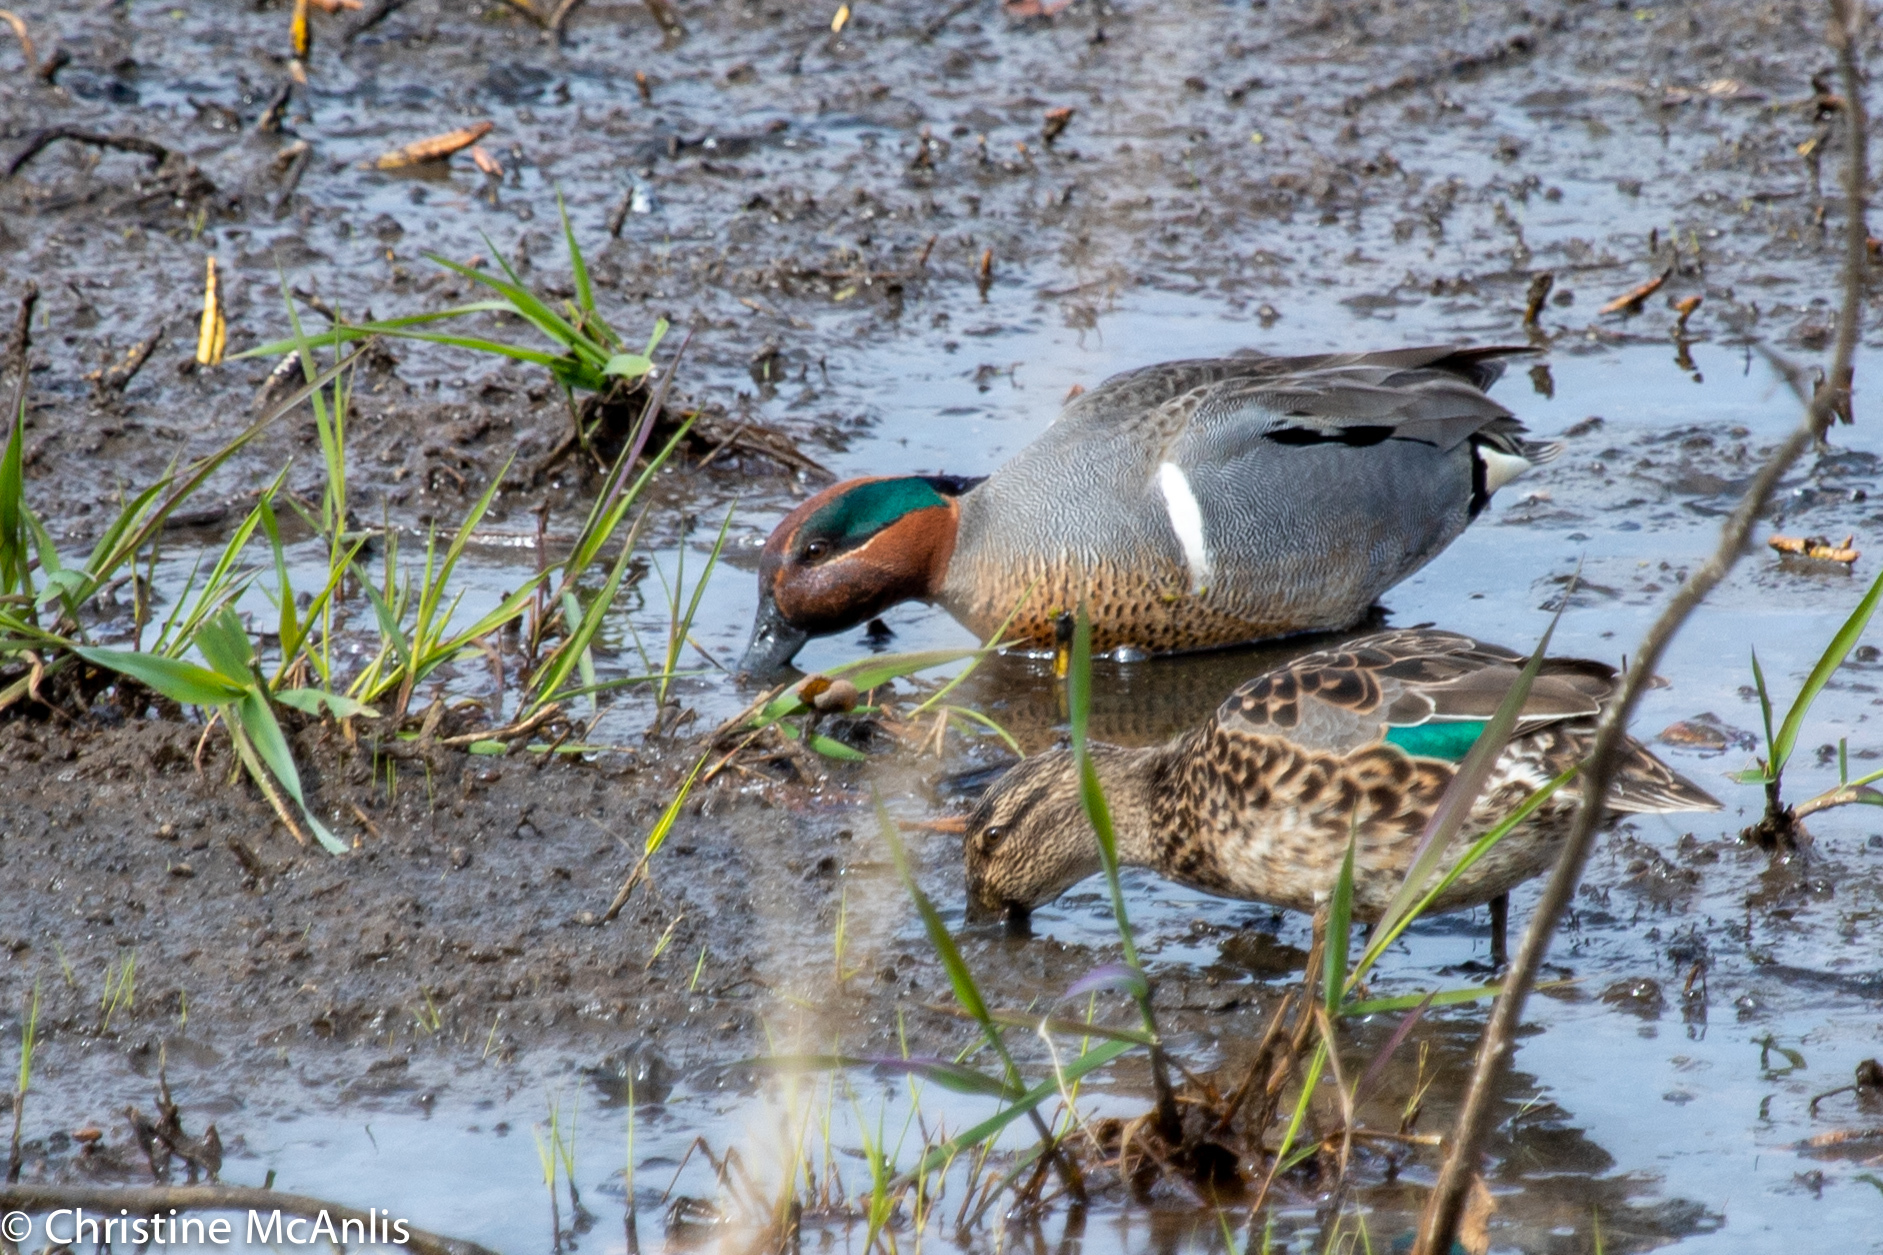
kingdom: Animalia
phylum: Chordata
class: Aves
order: Anseriformes
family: Anatidae
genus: Anas
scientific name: Anas crecca
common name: Eurasian teal
